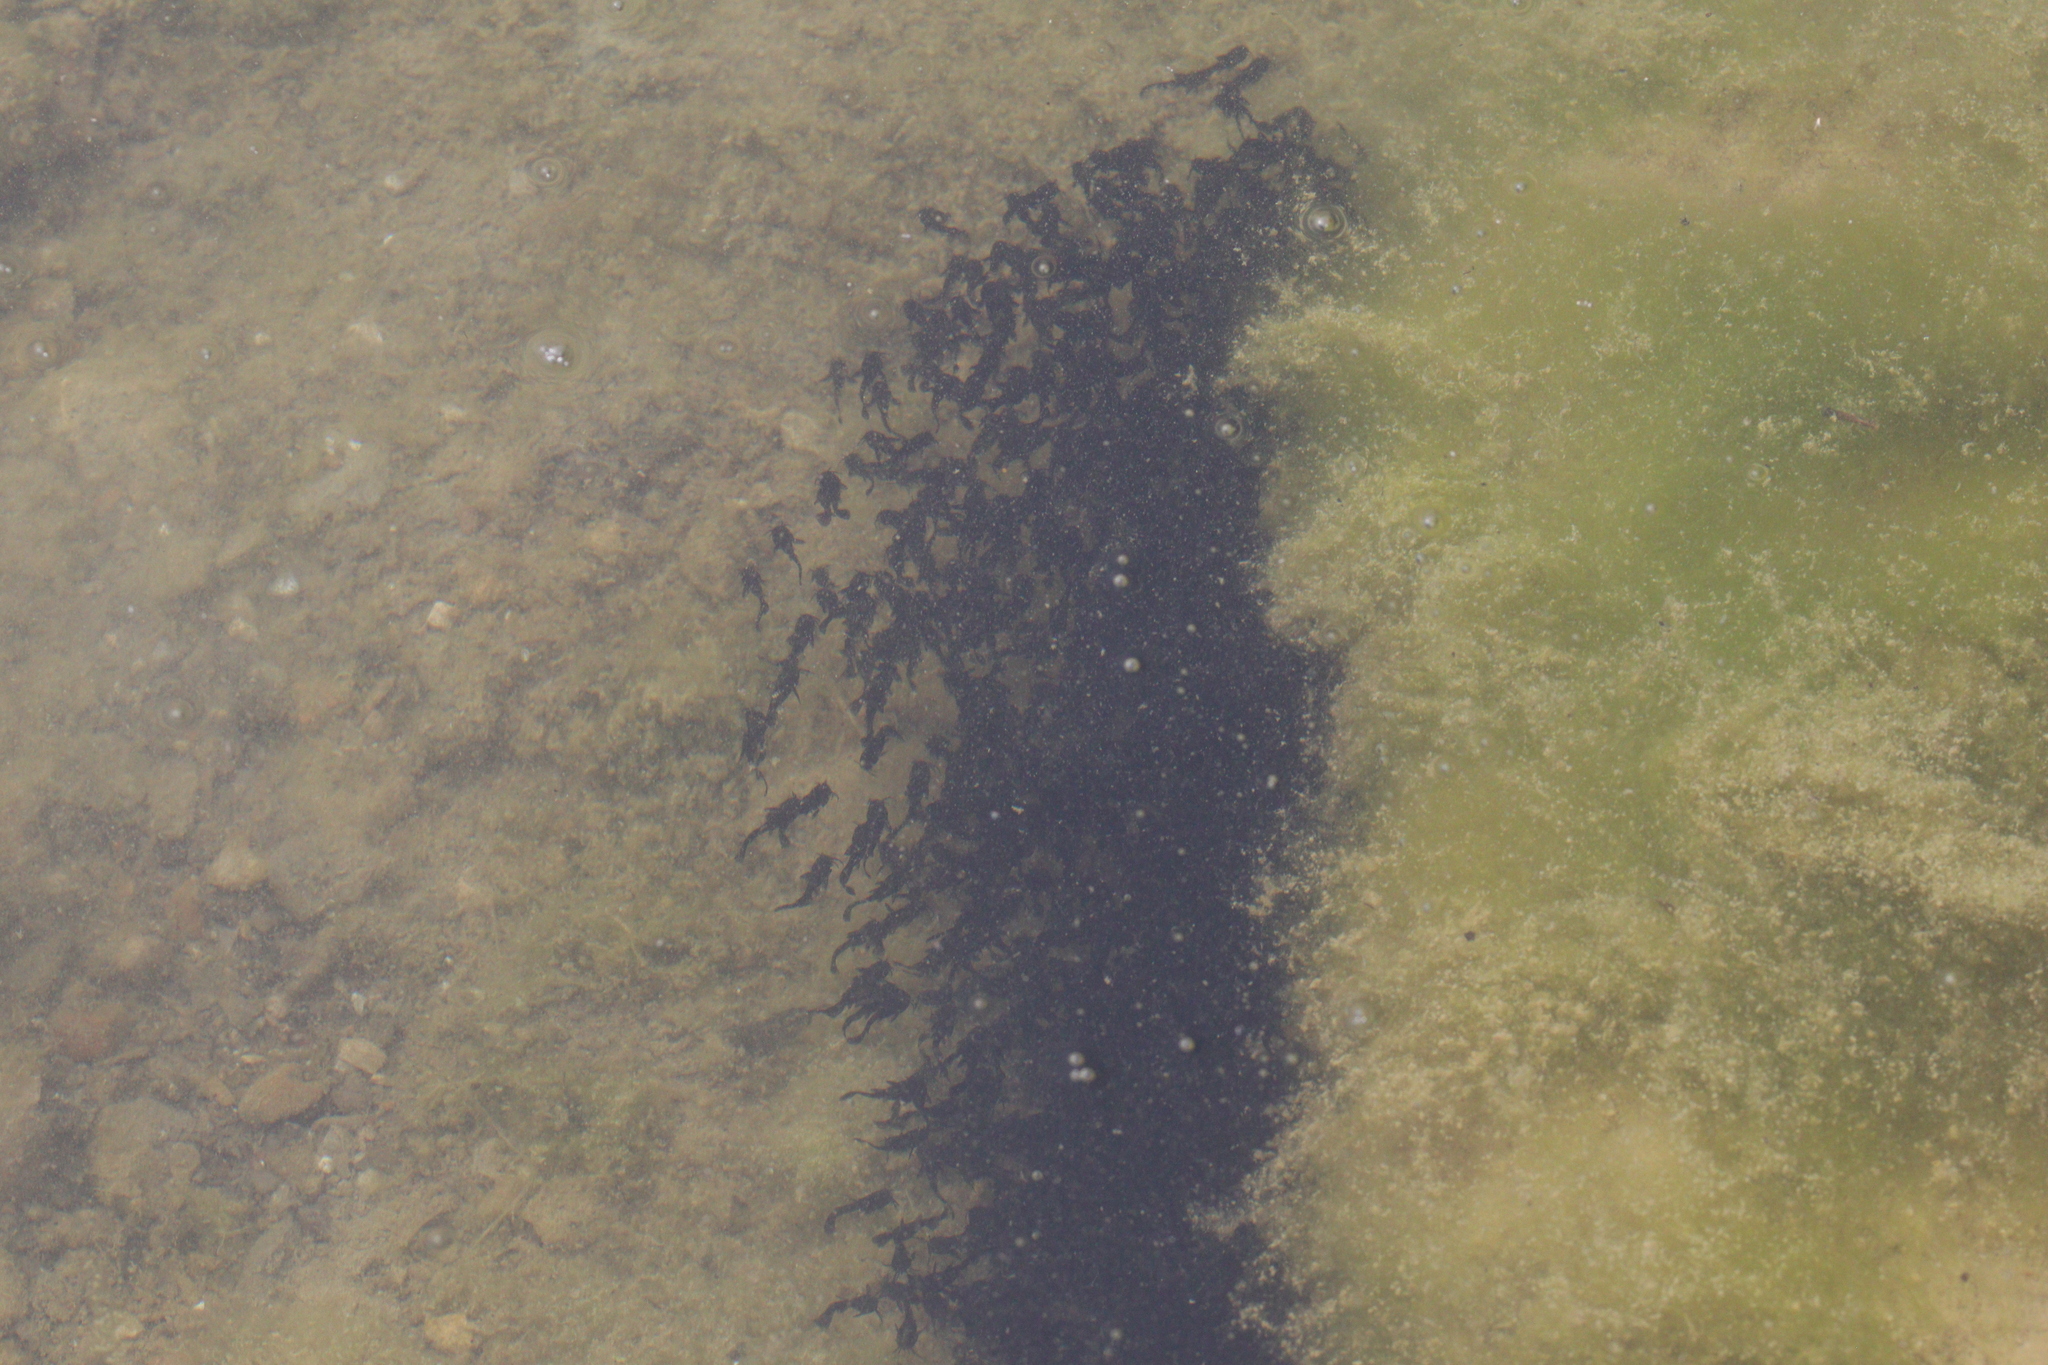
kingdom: Animalia
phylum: Chordata
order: Siluriformes
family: Ictaluridae
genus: Ameiurus
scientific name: Ameiurus melas
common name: Black bullhead
